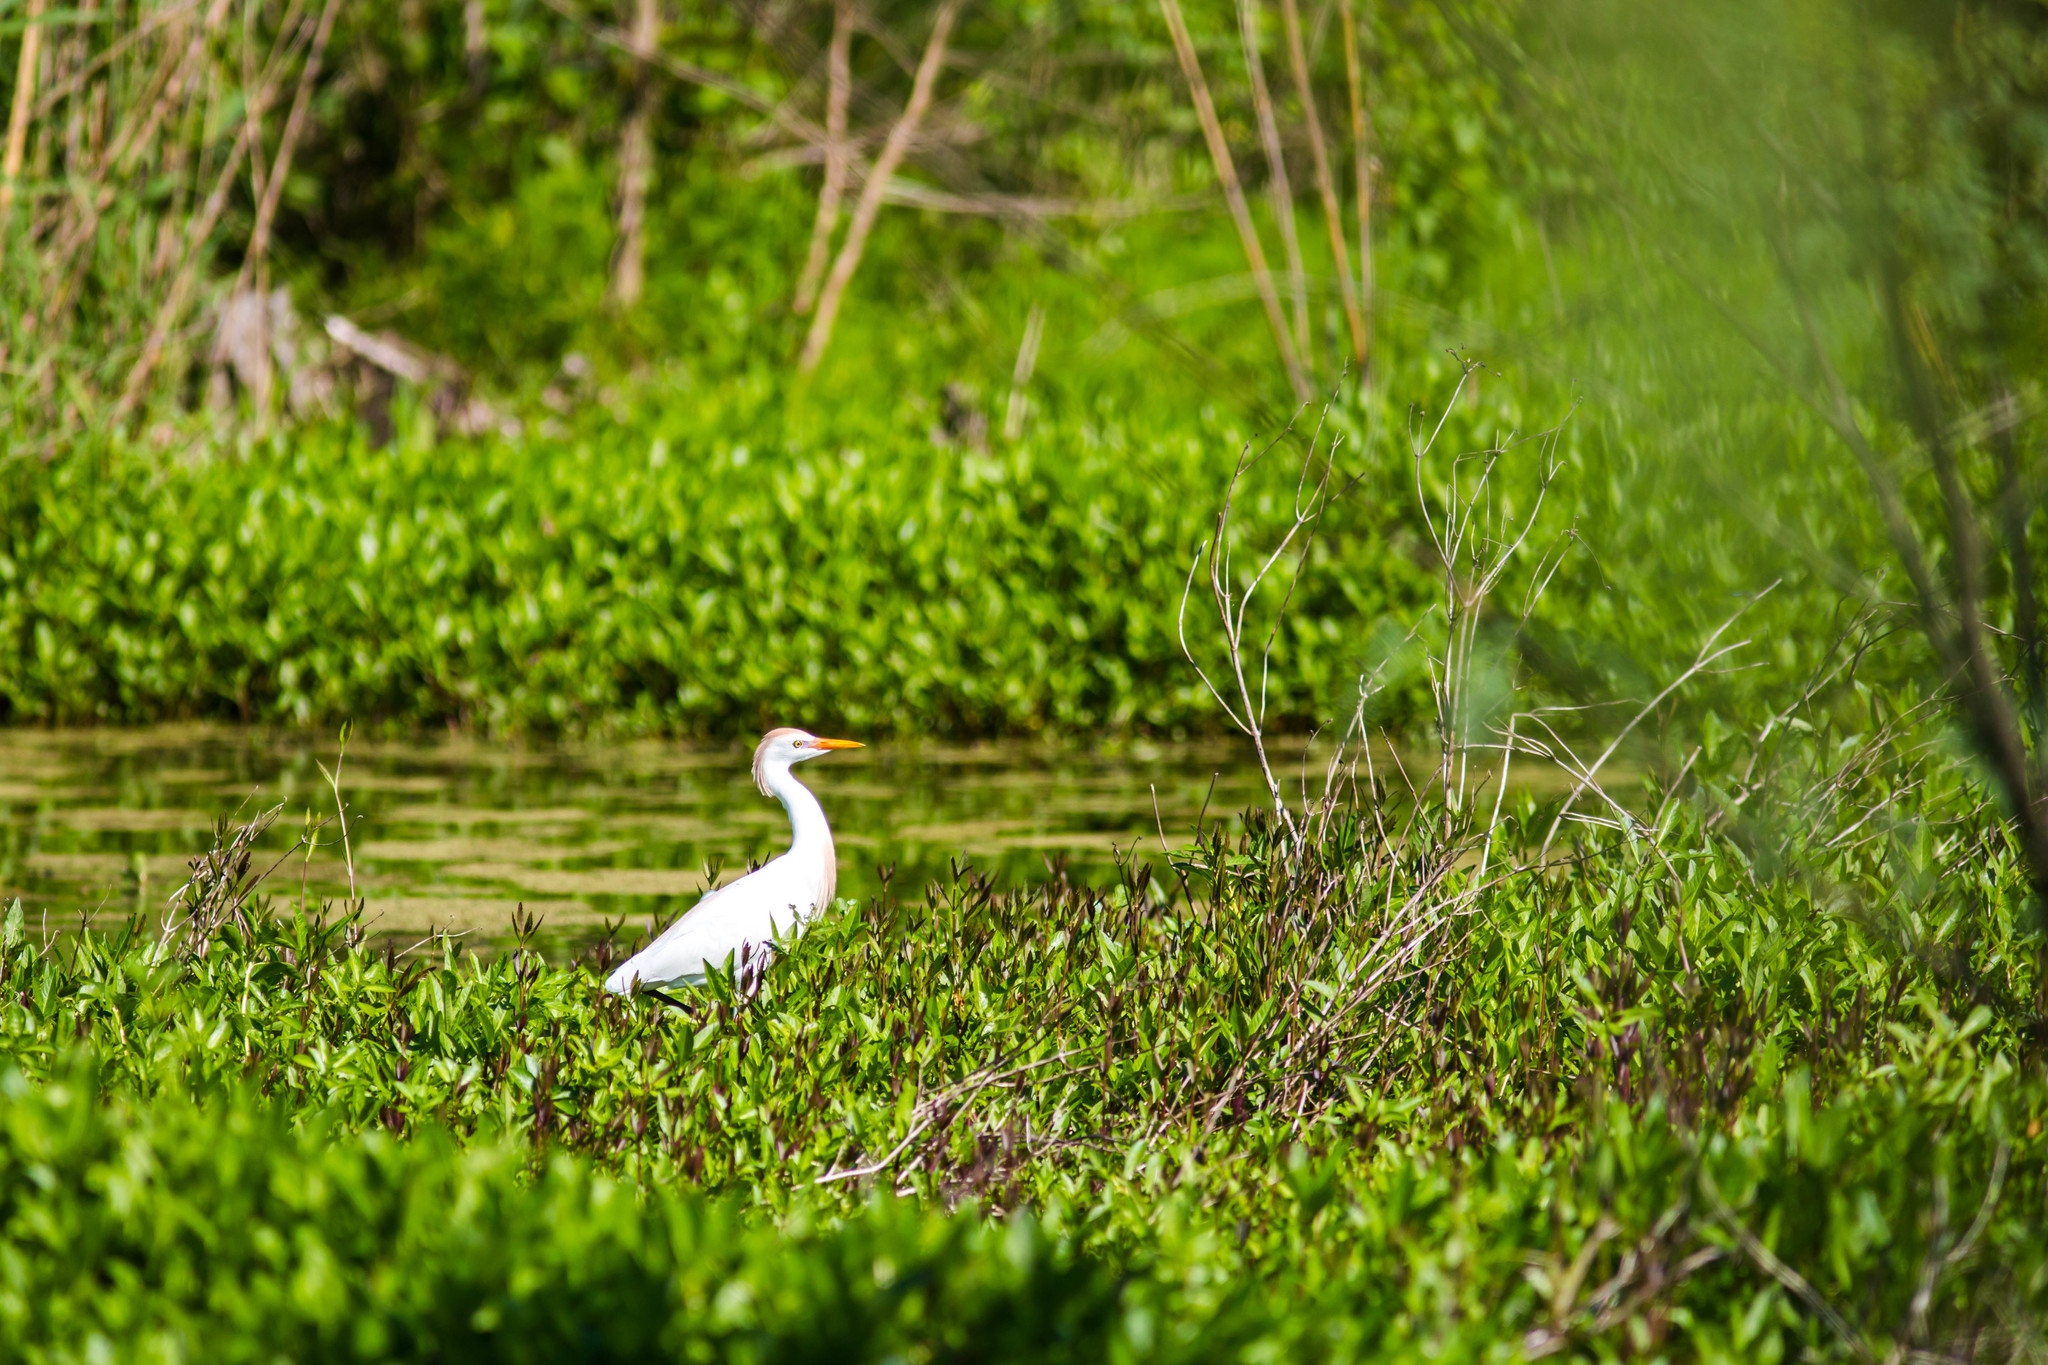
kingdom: Animalia
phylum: Chordata
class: Aves
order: Pelecaniformes
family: Ardeidae
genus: Bubulcus
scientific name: Bubulcus ibis
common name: Cattle egret
